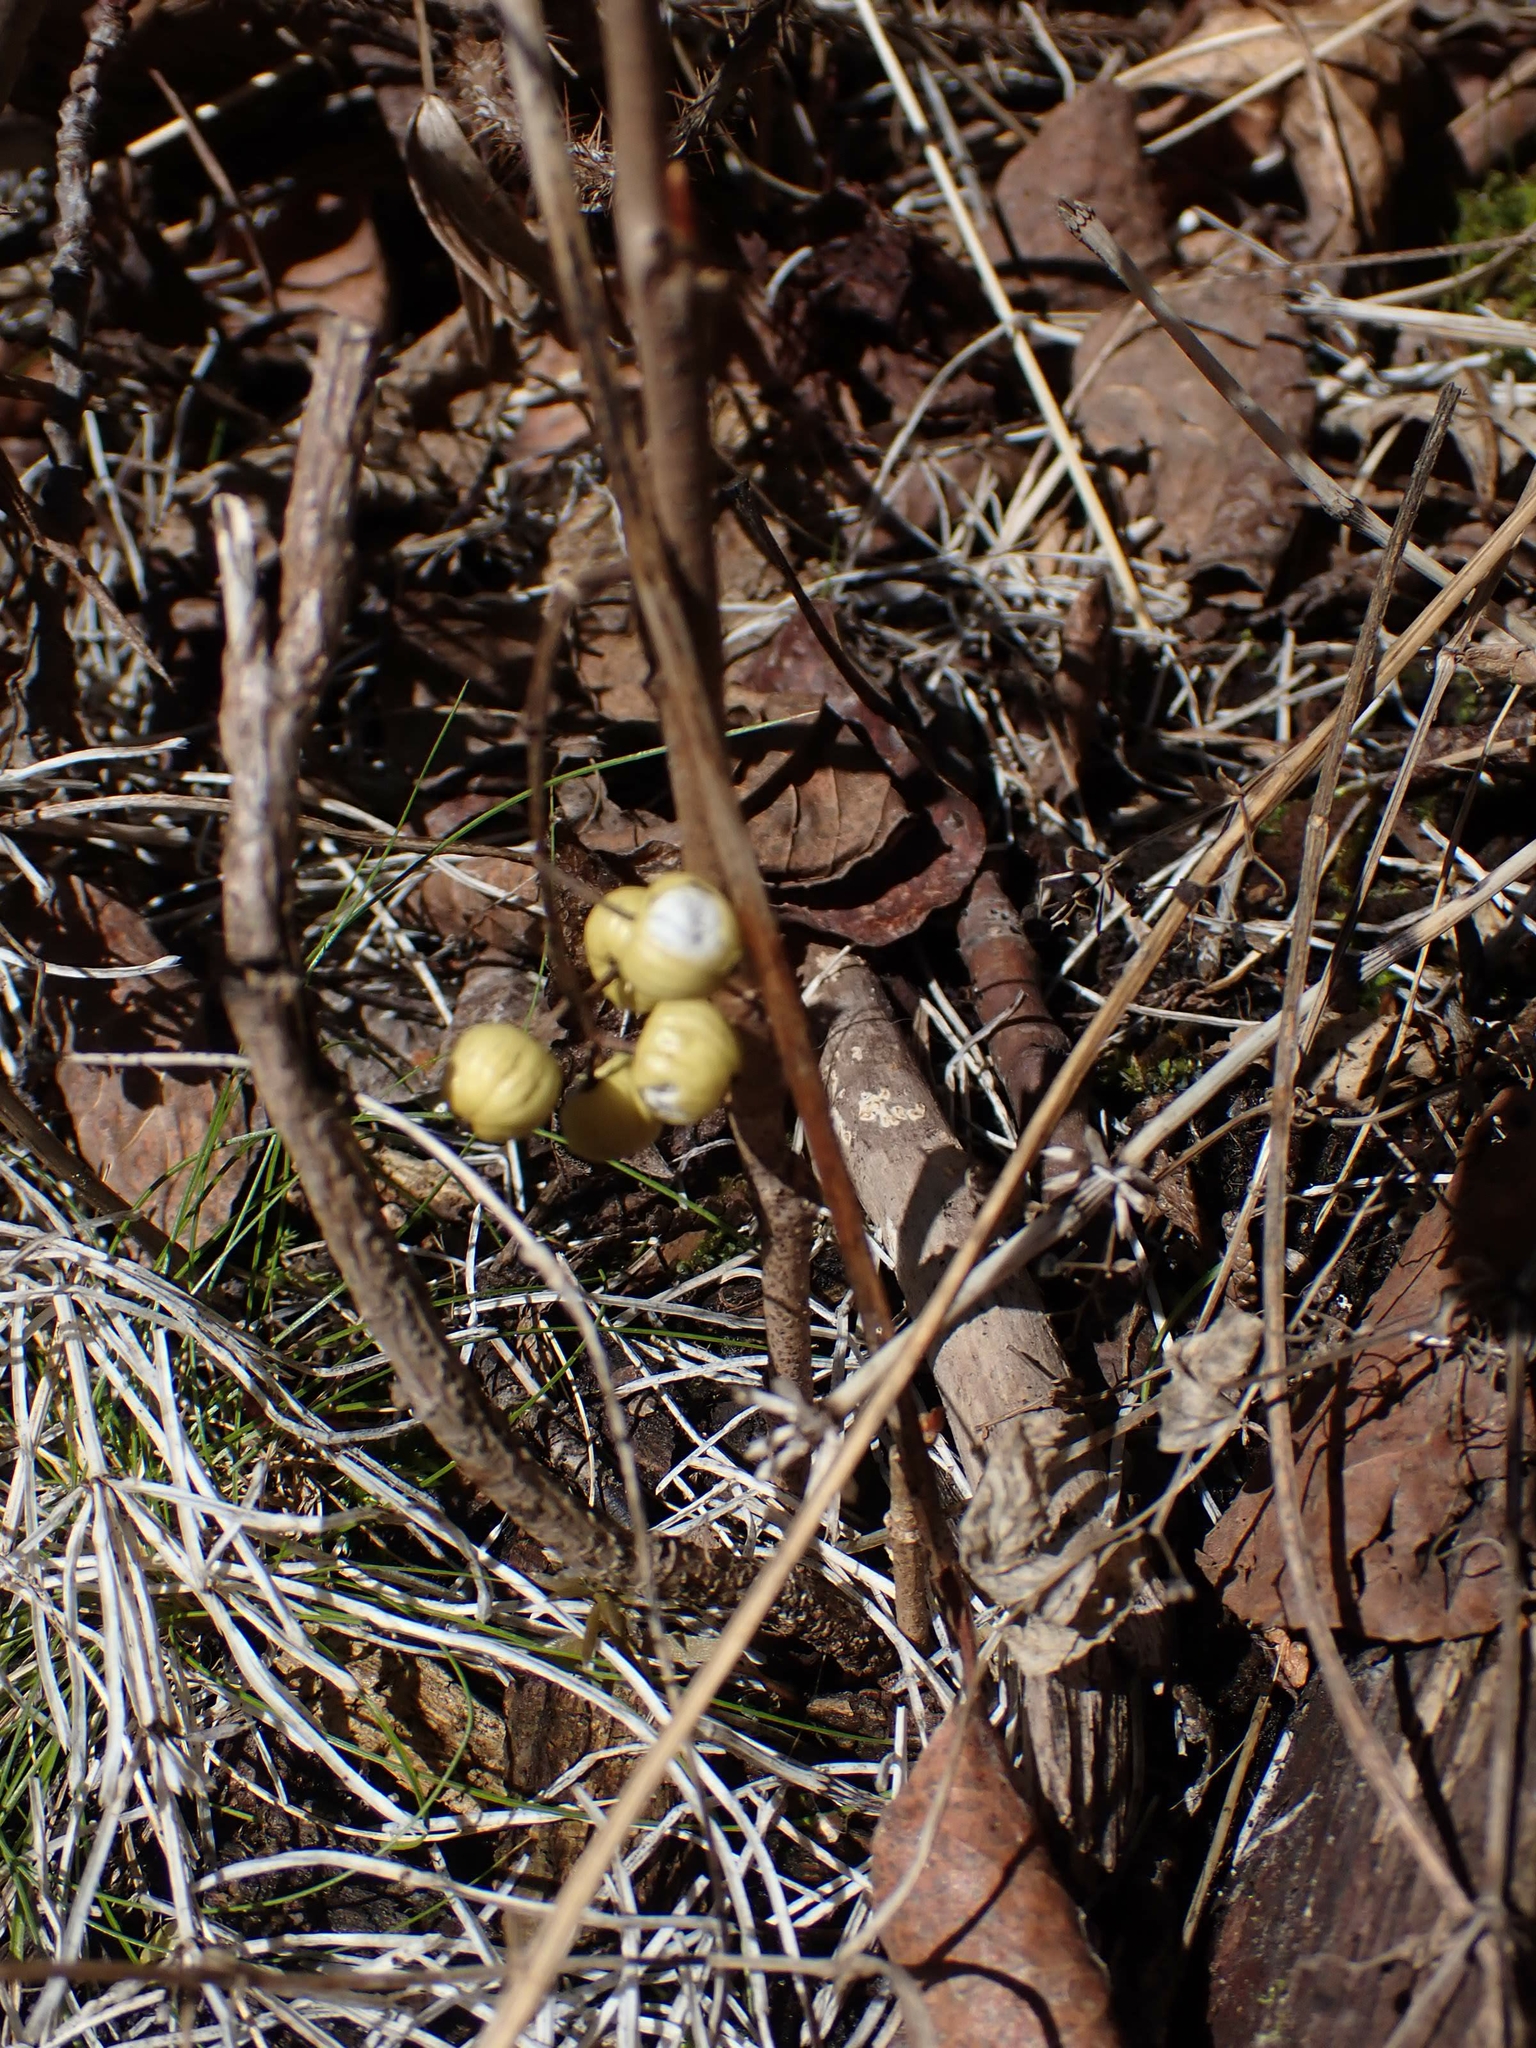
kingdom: Plantae
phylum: Tracheophyta
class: Magnoliopsida
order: Sapindales
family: Anacardiaceae
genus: Toxicodendron
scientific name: Toxicodendron rydbergii
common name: Rydberg's poison-ivy
